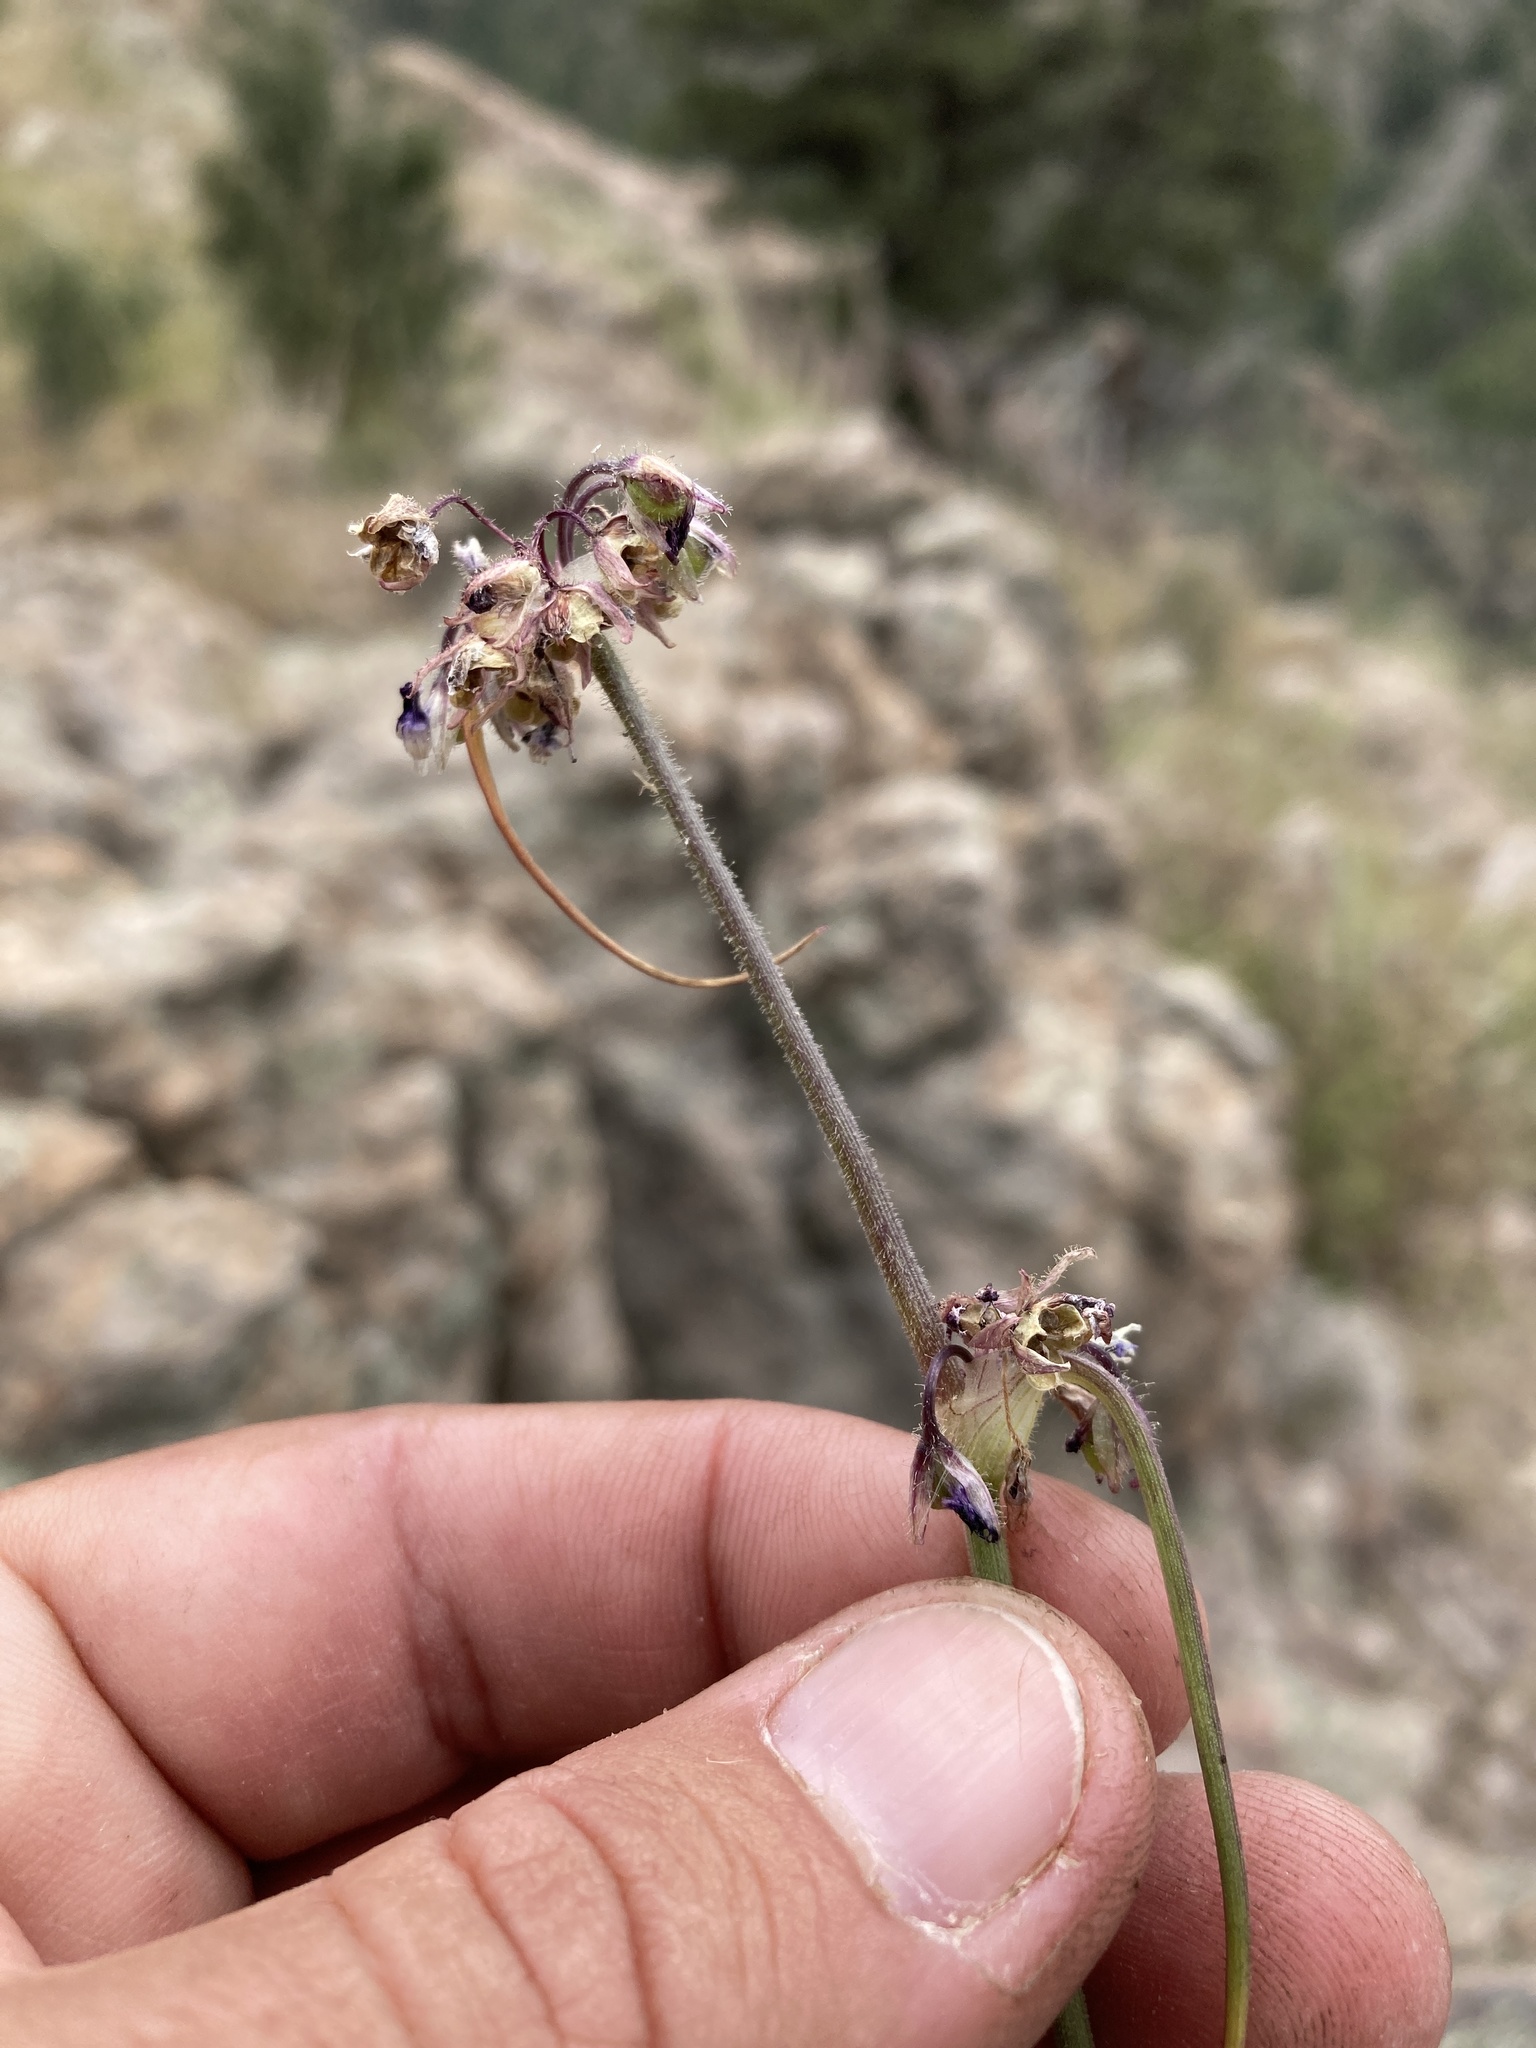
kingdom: Plantae
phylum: Tracheophyta
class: Liliopsida
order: Commelinales
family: Commelinaceae
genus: Tradescantia
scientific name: Tradescantia pinetorum
